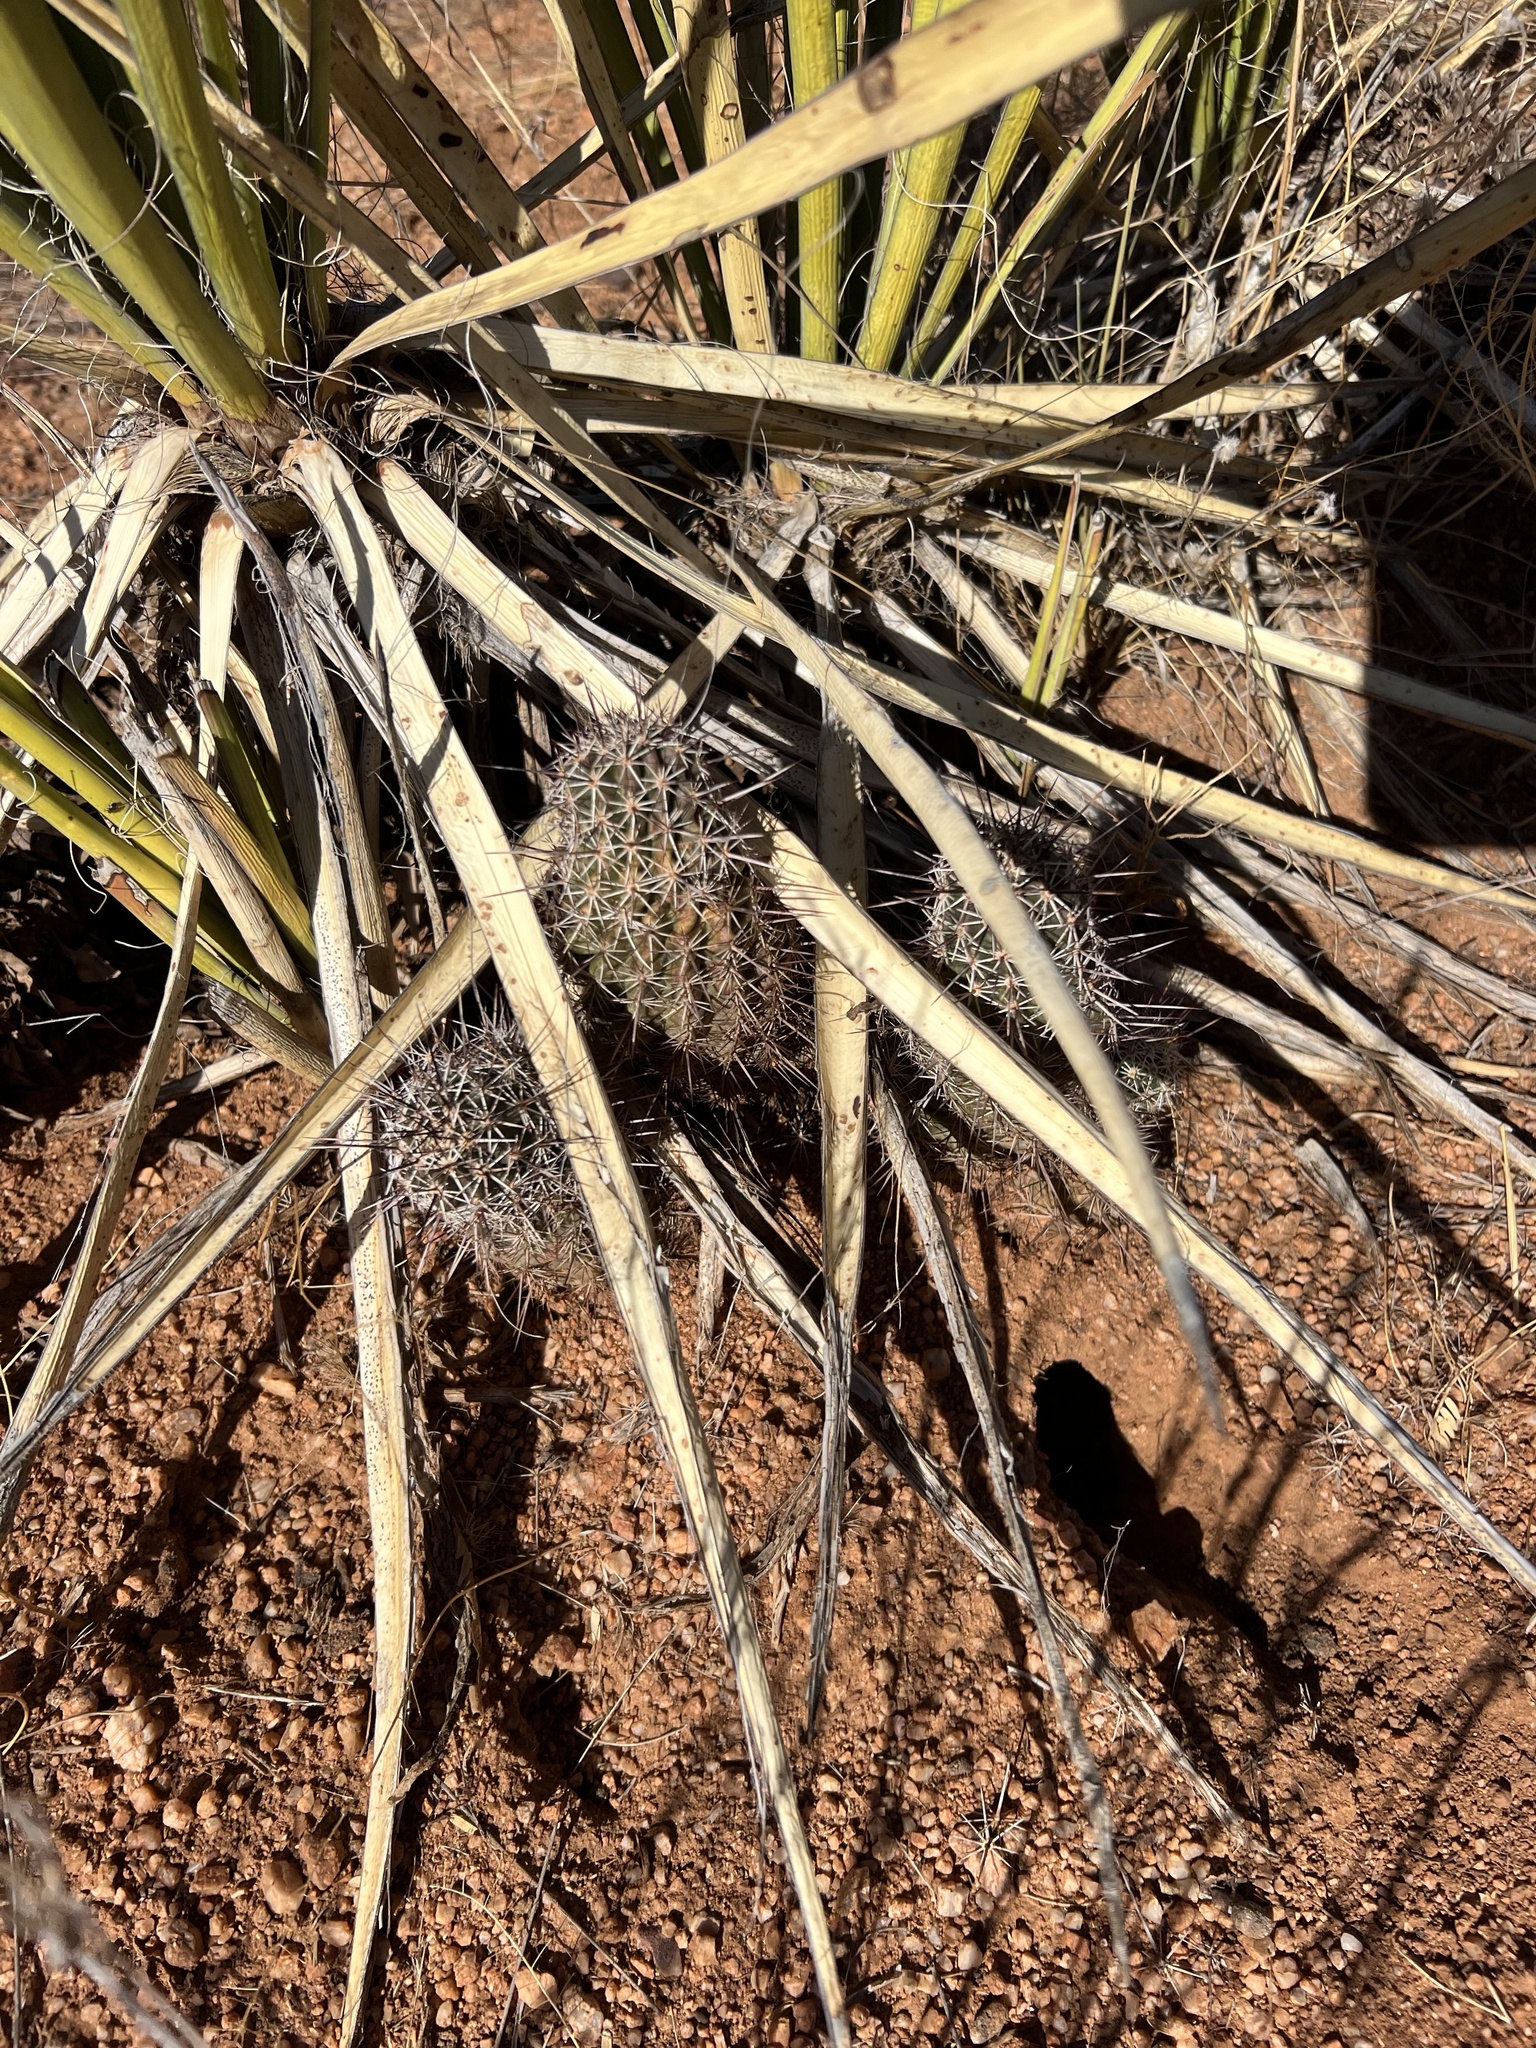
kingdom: Plantae
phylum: Tracheophyta
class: Magnoliopsida
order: Caryophyllales
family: Cactaceae
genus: Echinocereus
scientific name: Echinocereus fendleri
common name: Fendler's hedgehog cactus
